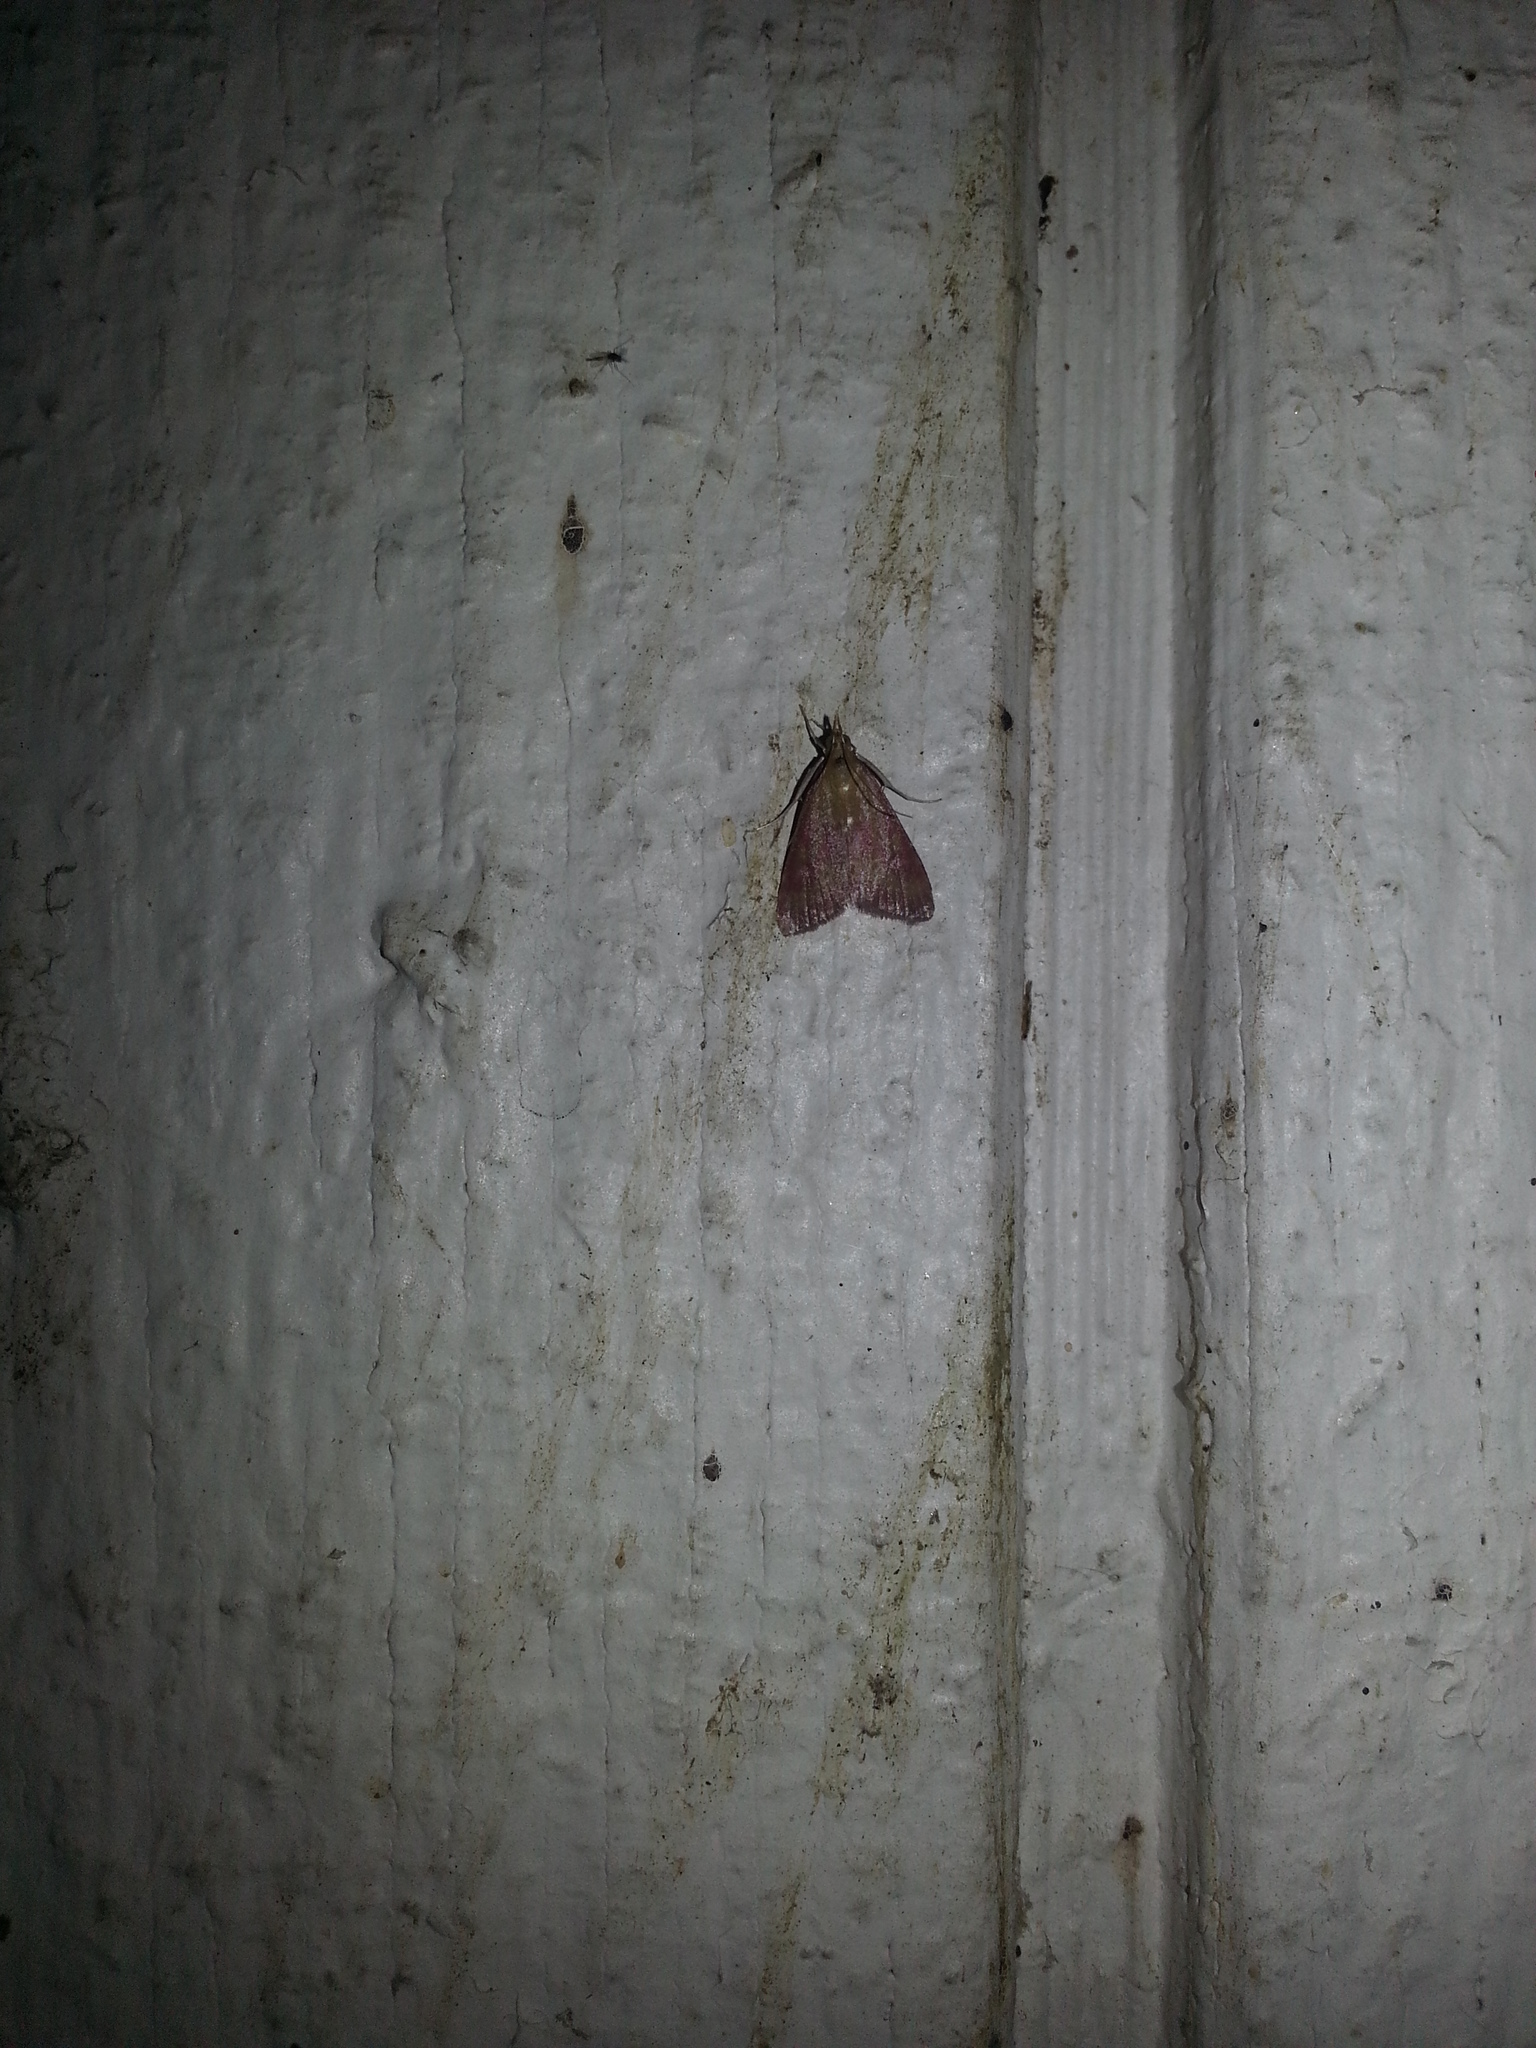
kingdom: Animalia
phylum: Arthropoda
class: Insecta
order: Lepidoptera
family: Crambidae
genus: Pyrausta
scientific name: Pyrausta laticlavia
